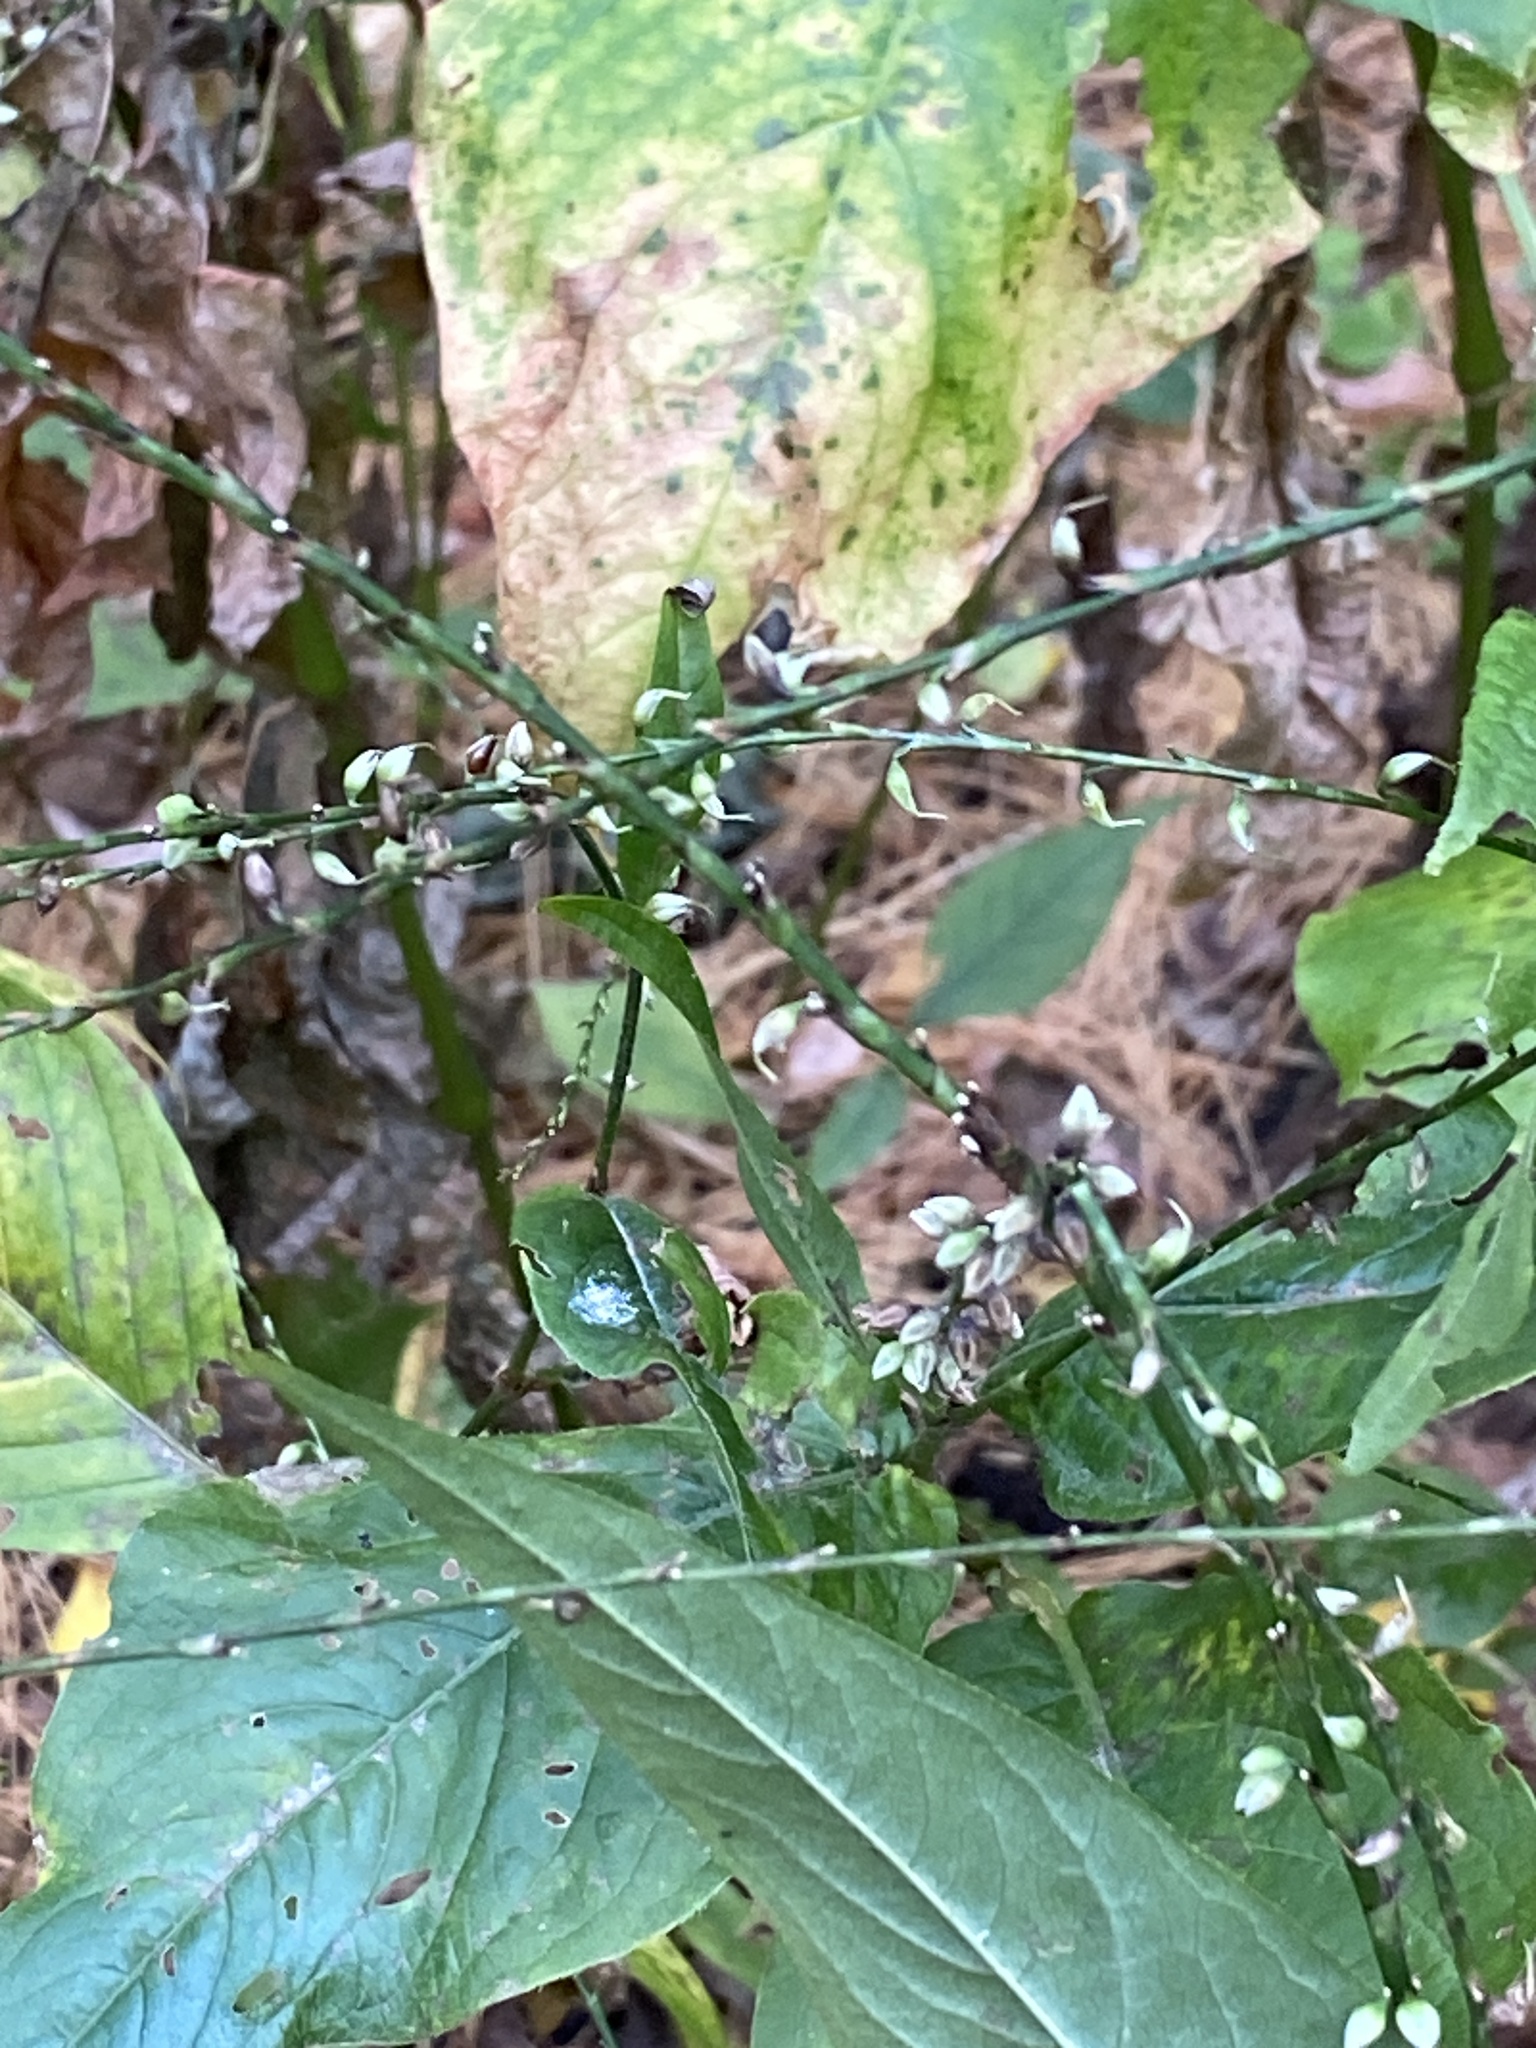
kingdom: Plantae
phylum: Tracheophyta
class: Magnoliopsida
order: Caryophyllales
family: Polygonaceae
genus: Persicaria
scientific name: Persicaria virginiana
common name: Jumpseed
